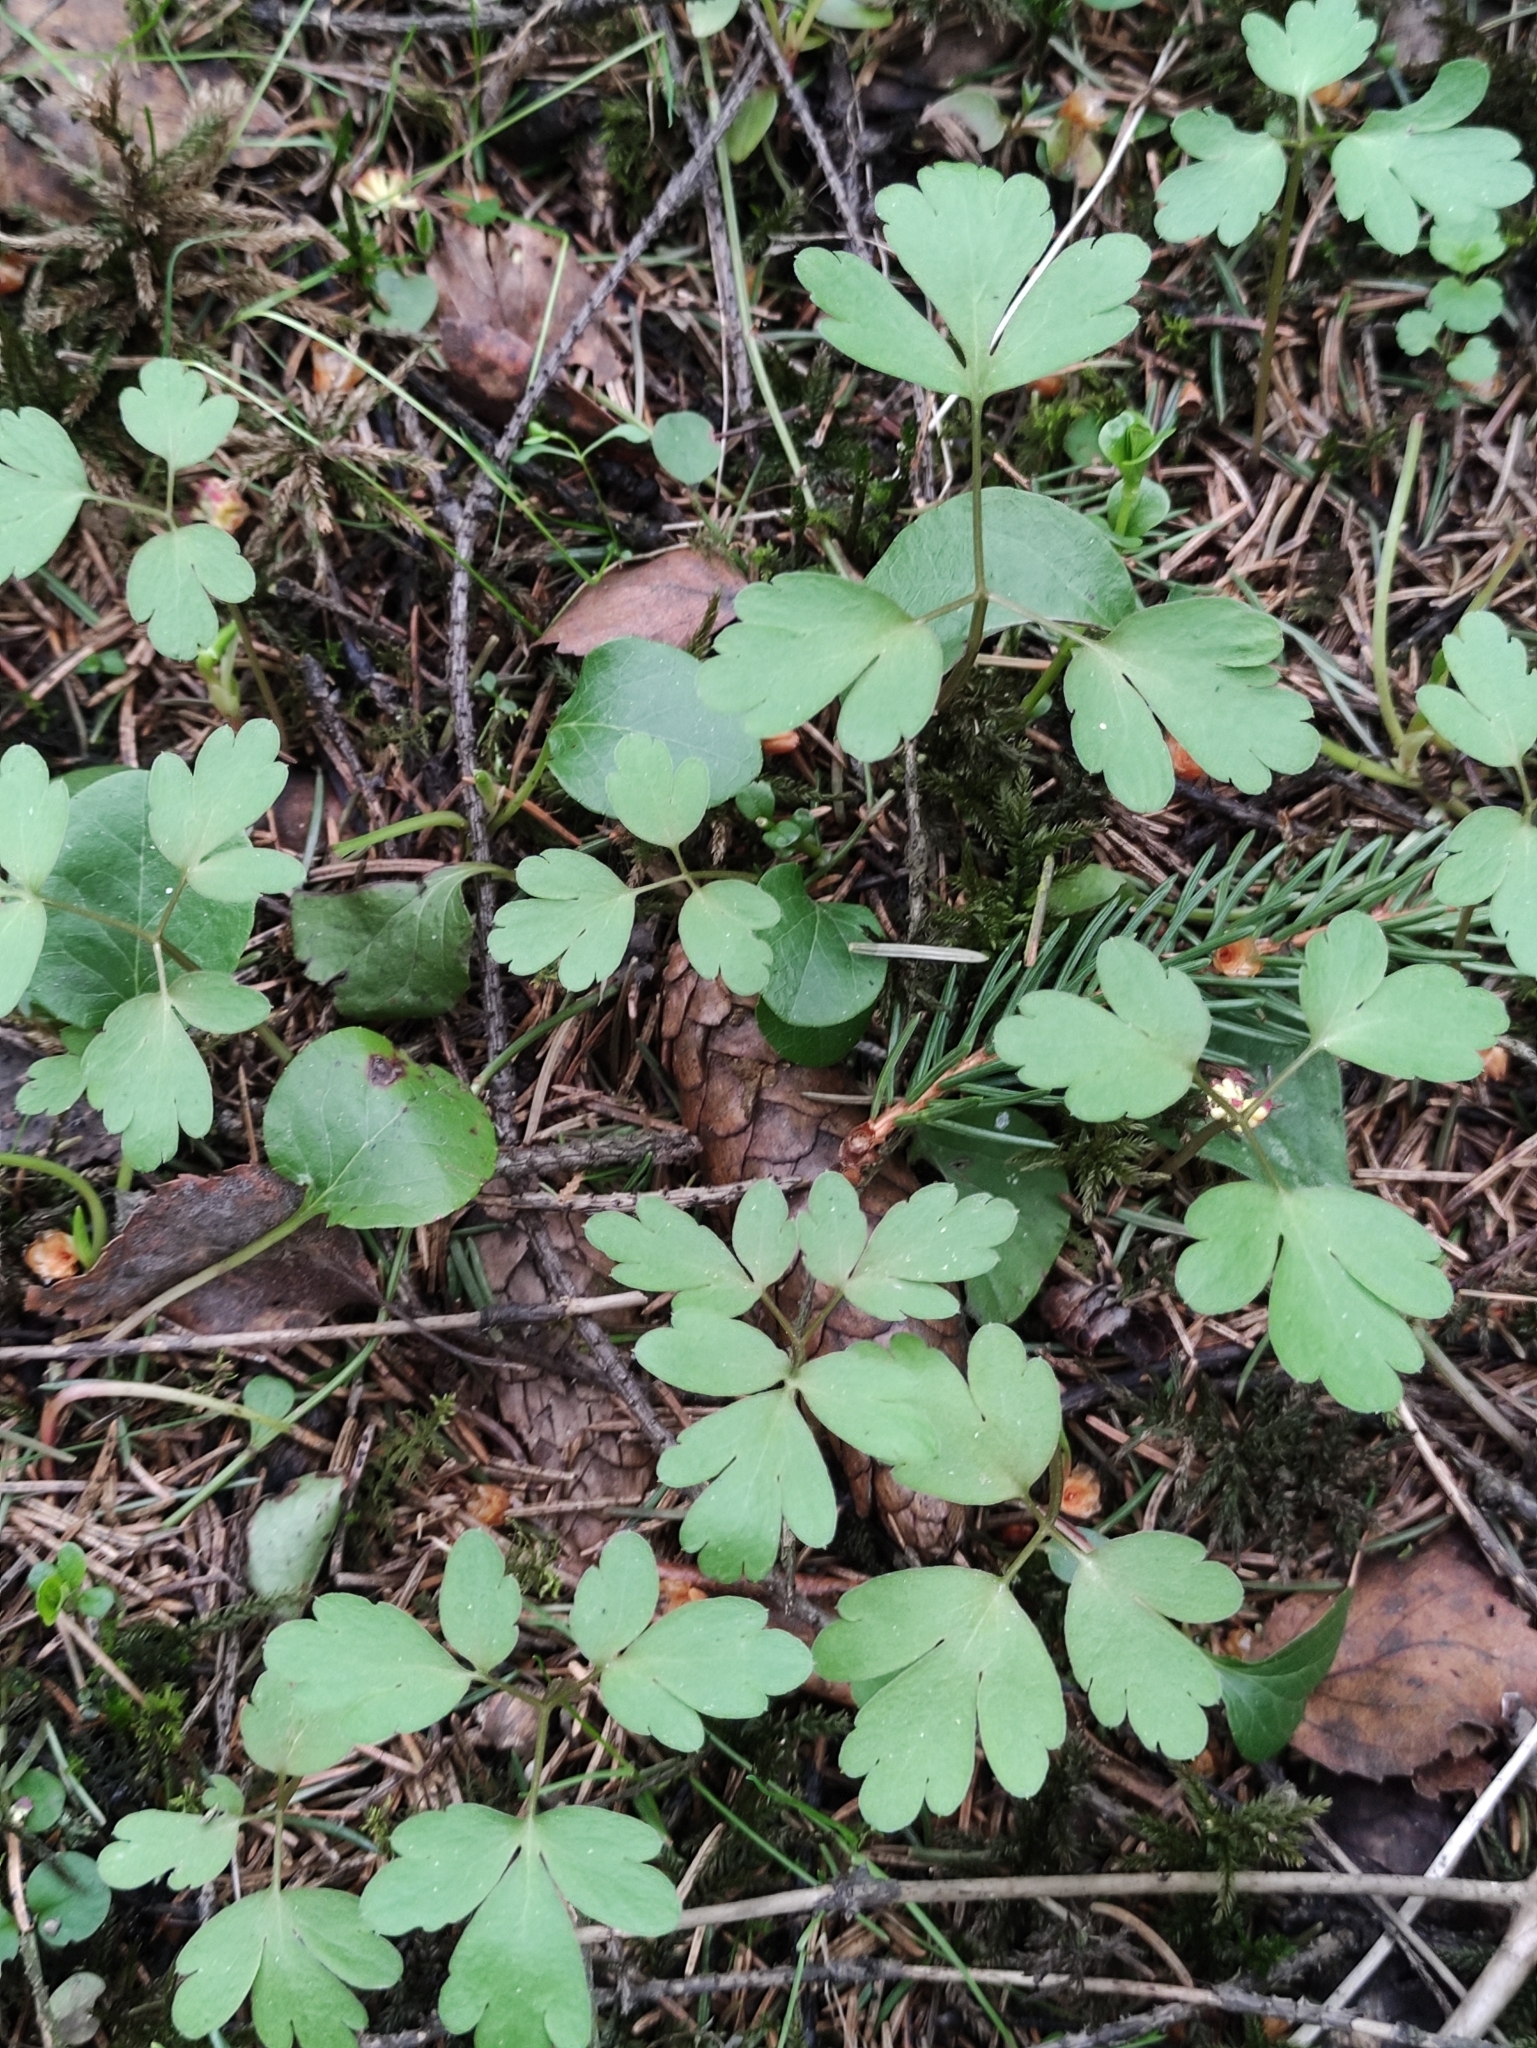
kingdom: Plantae
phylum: Tracheophyta
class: Magnoliopsida
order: Dipsacales
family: Viburnaceae
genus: Adoxa
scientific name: Adoxa moschatellina
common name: Moschatel
